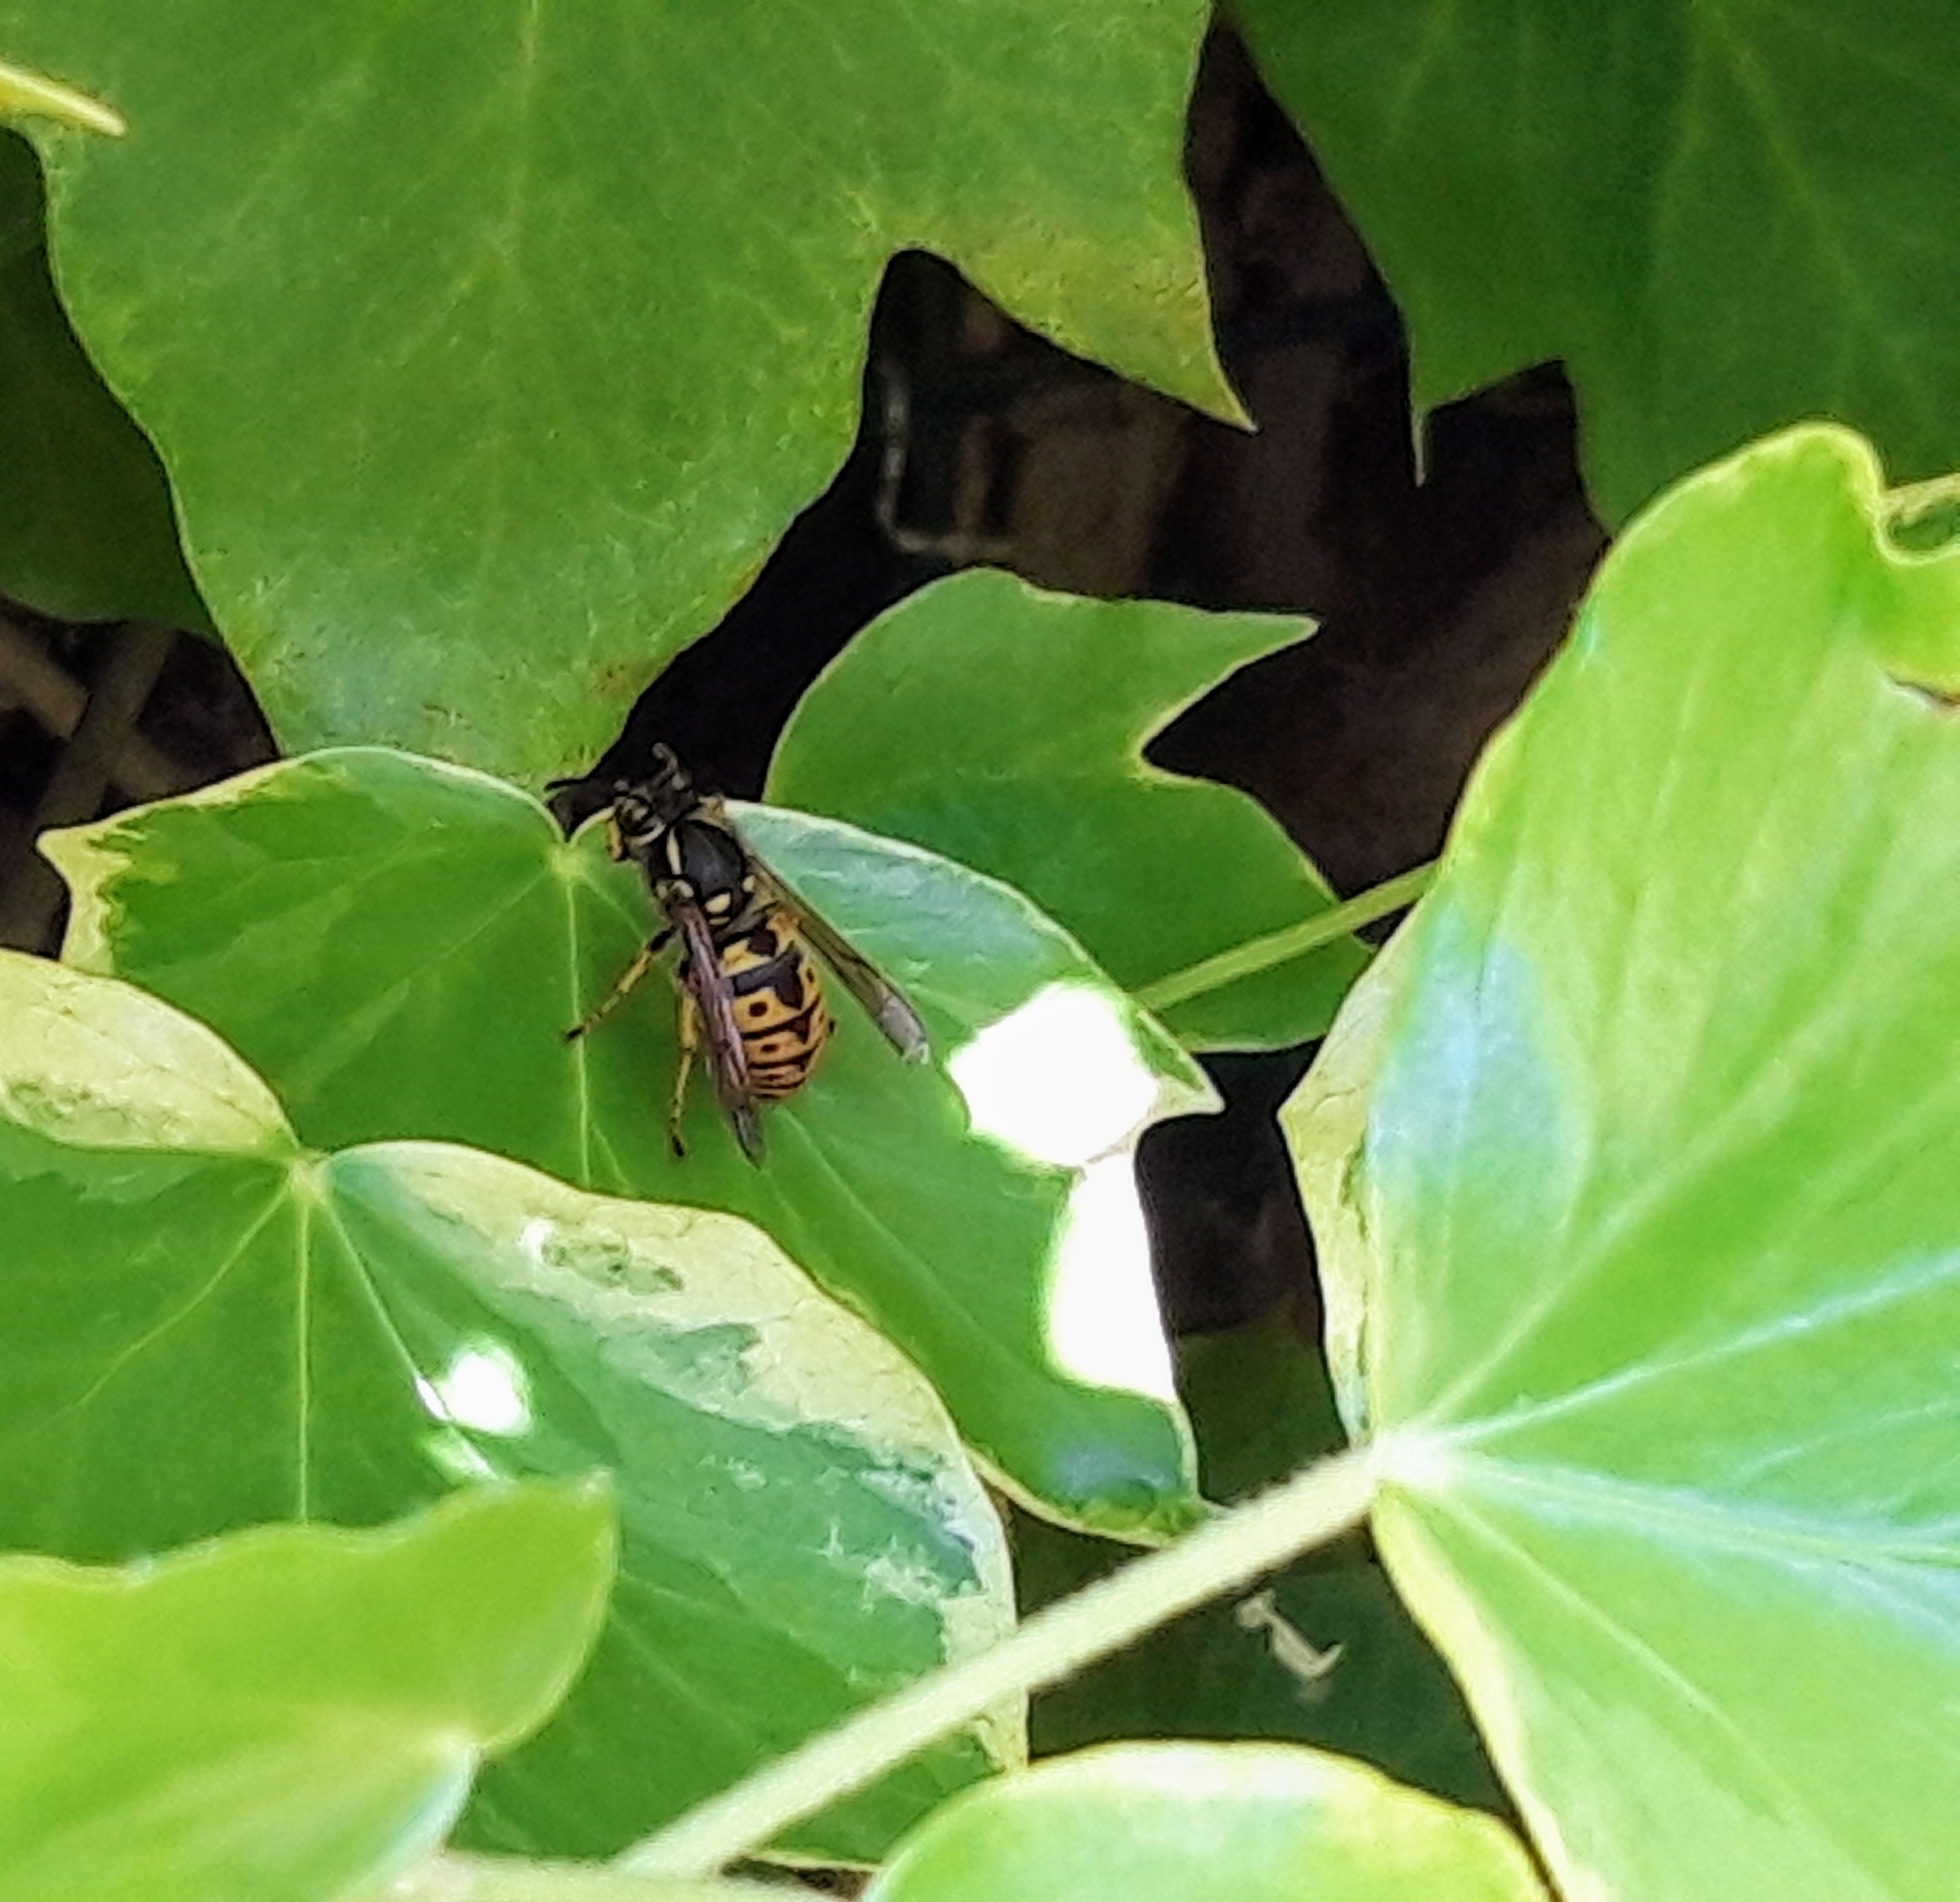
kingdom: Animalia
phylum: Arthropoda
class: Insecta
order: Hymenoptera
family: Vespidae
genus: Vespula
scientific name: Vespula germanica
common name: German wasp
